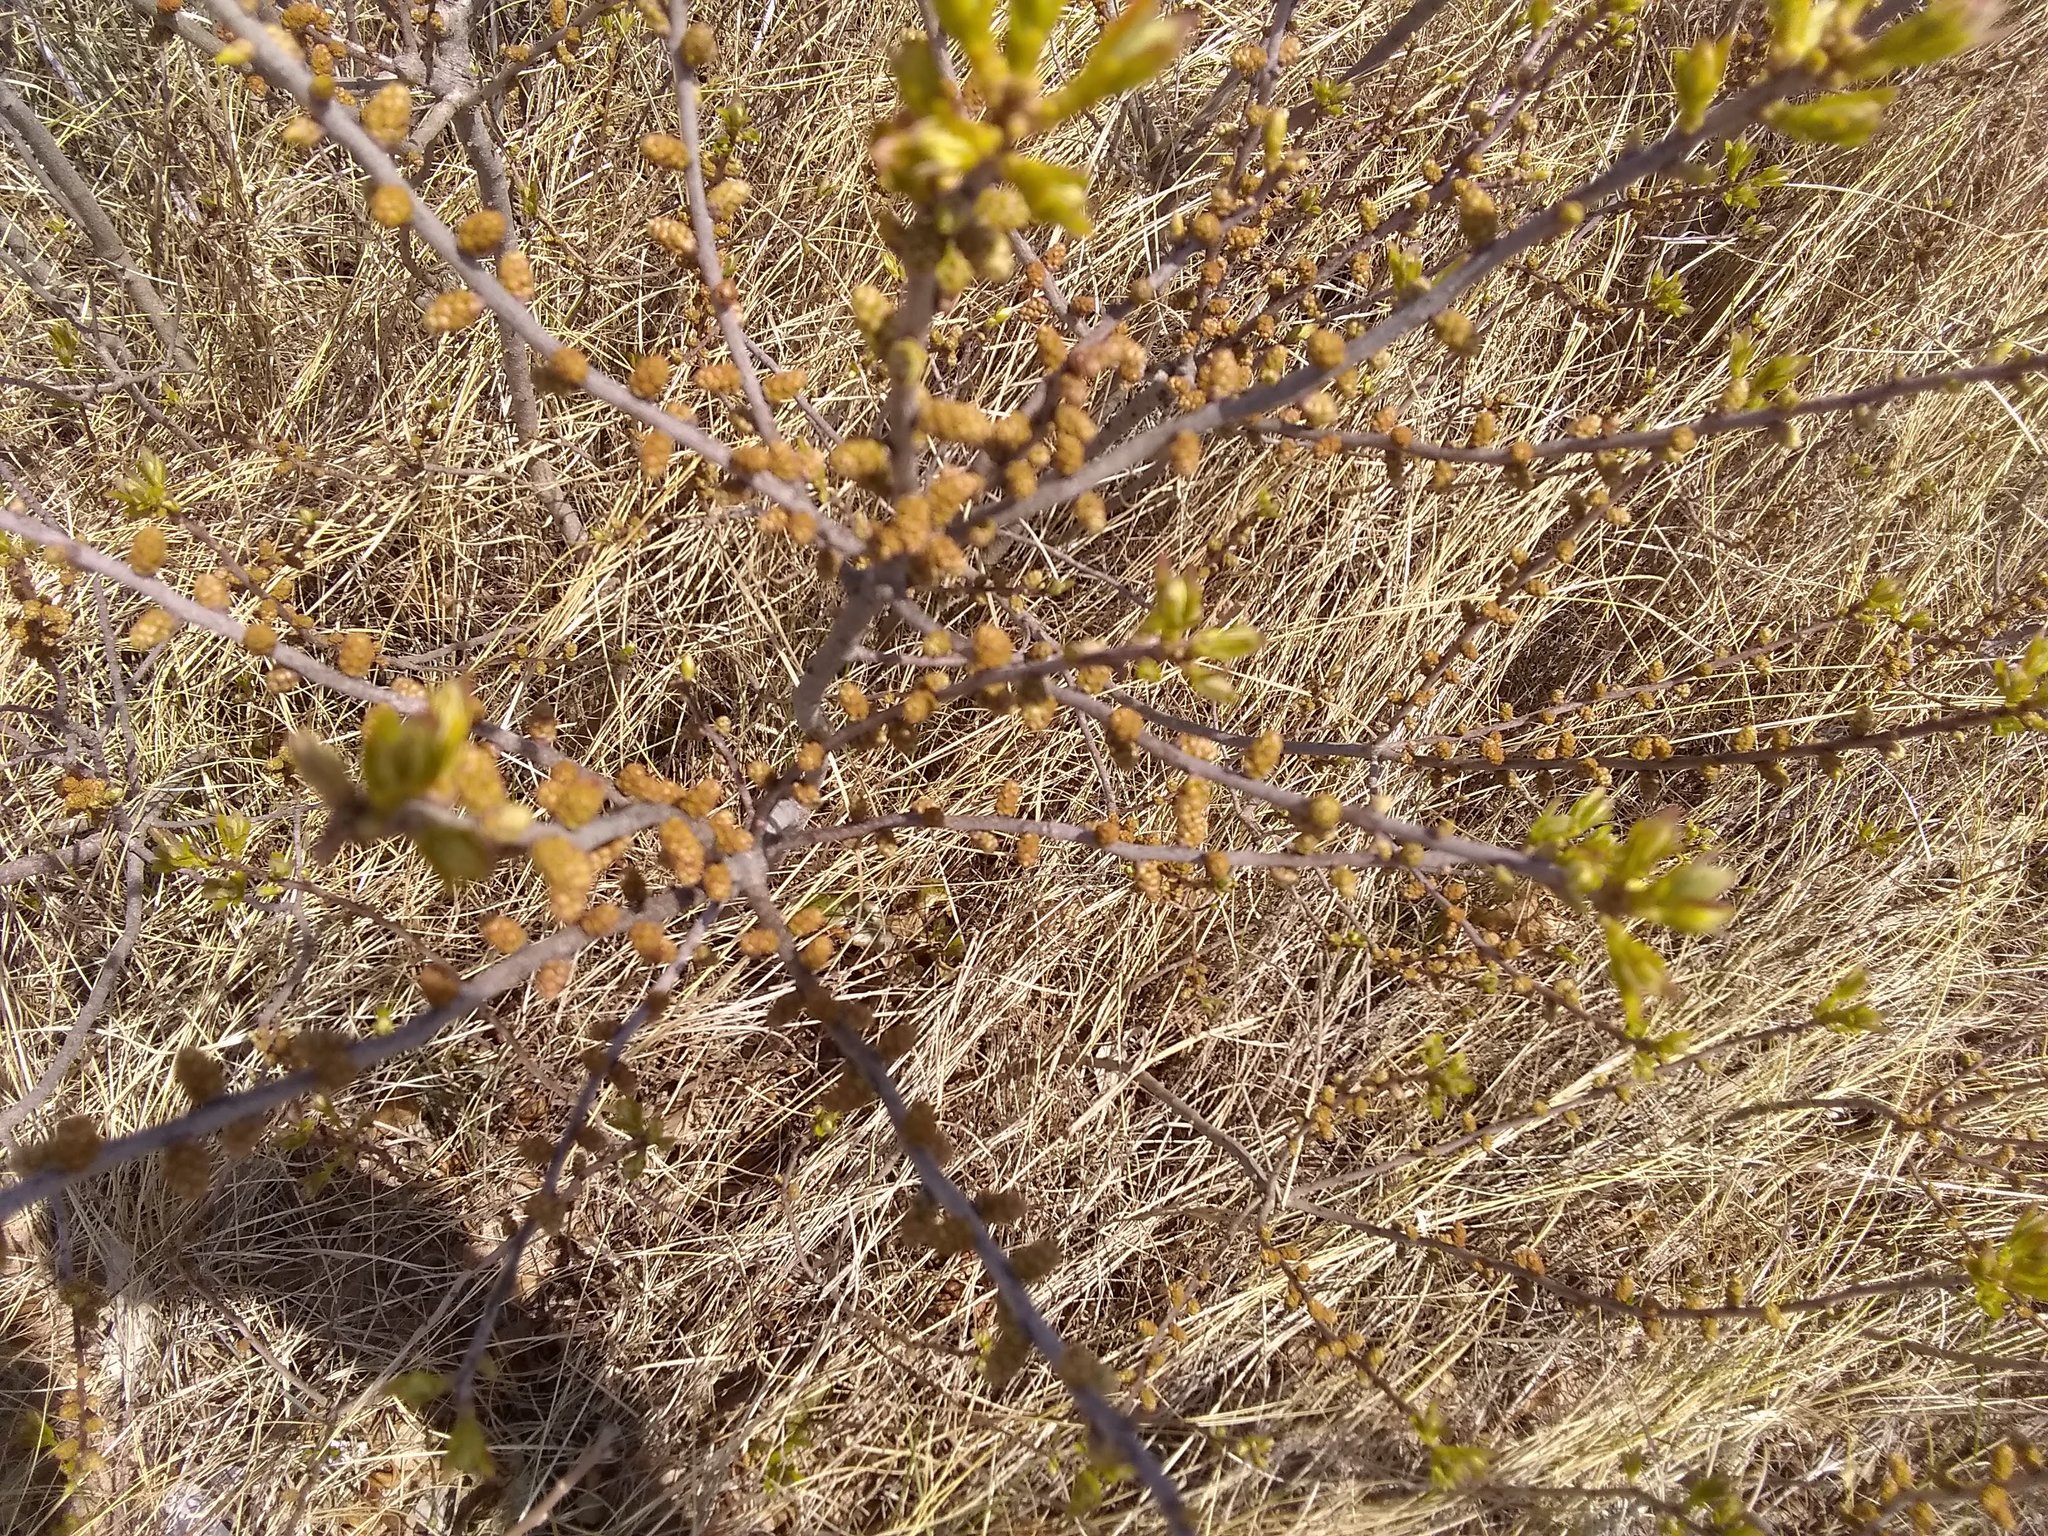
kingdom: Plantae
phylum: Tracheophyta
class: Magnoliopsida
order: Fagales
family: Myricaceae
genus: Morella
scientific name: Morella pensylvanica
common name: Northern bayberry
